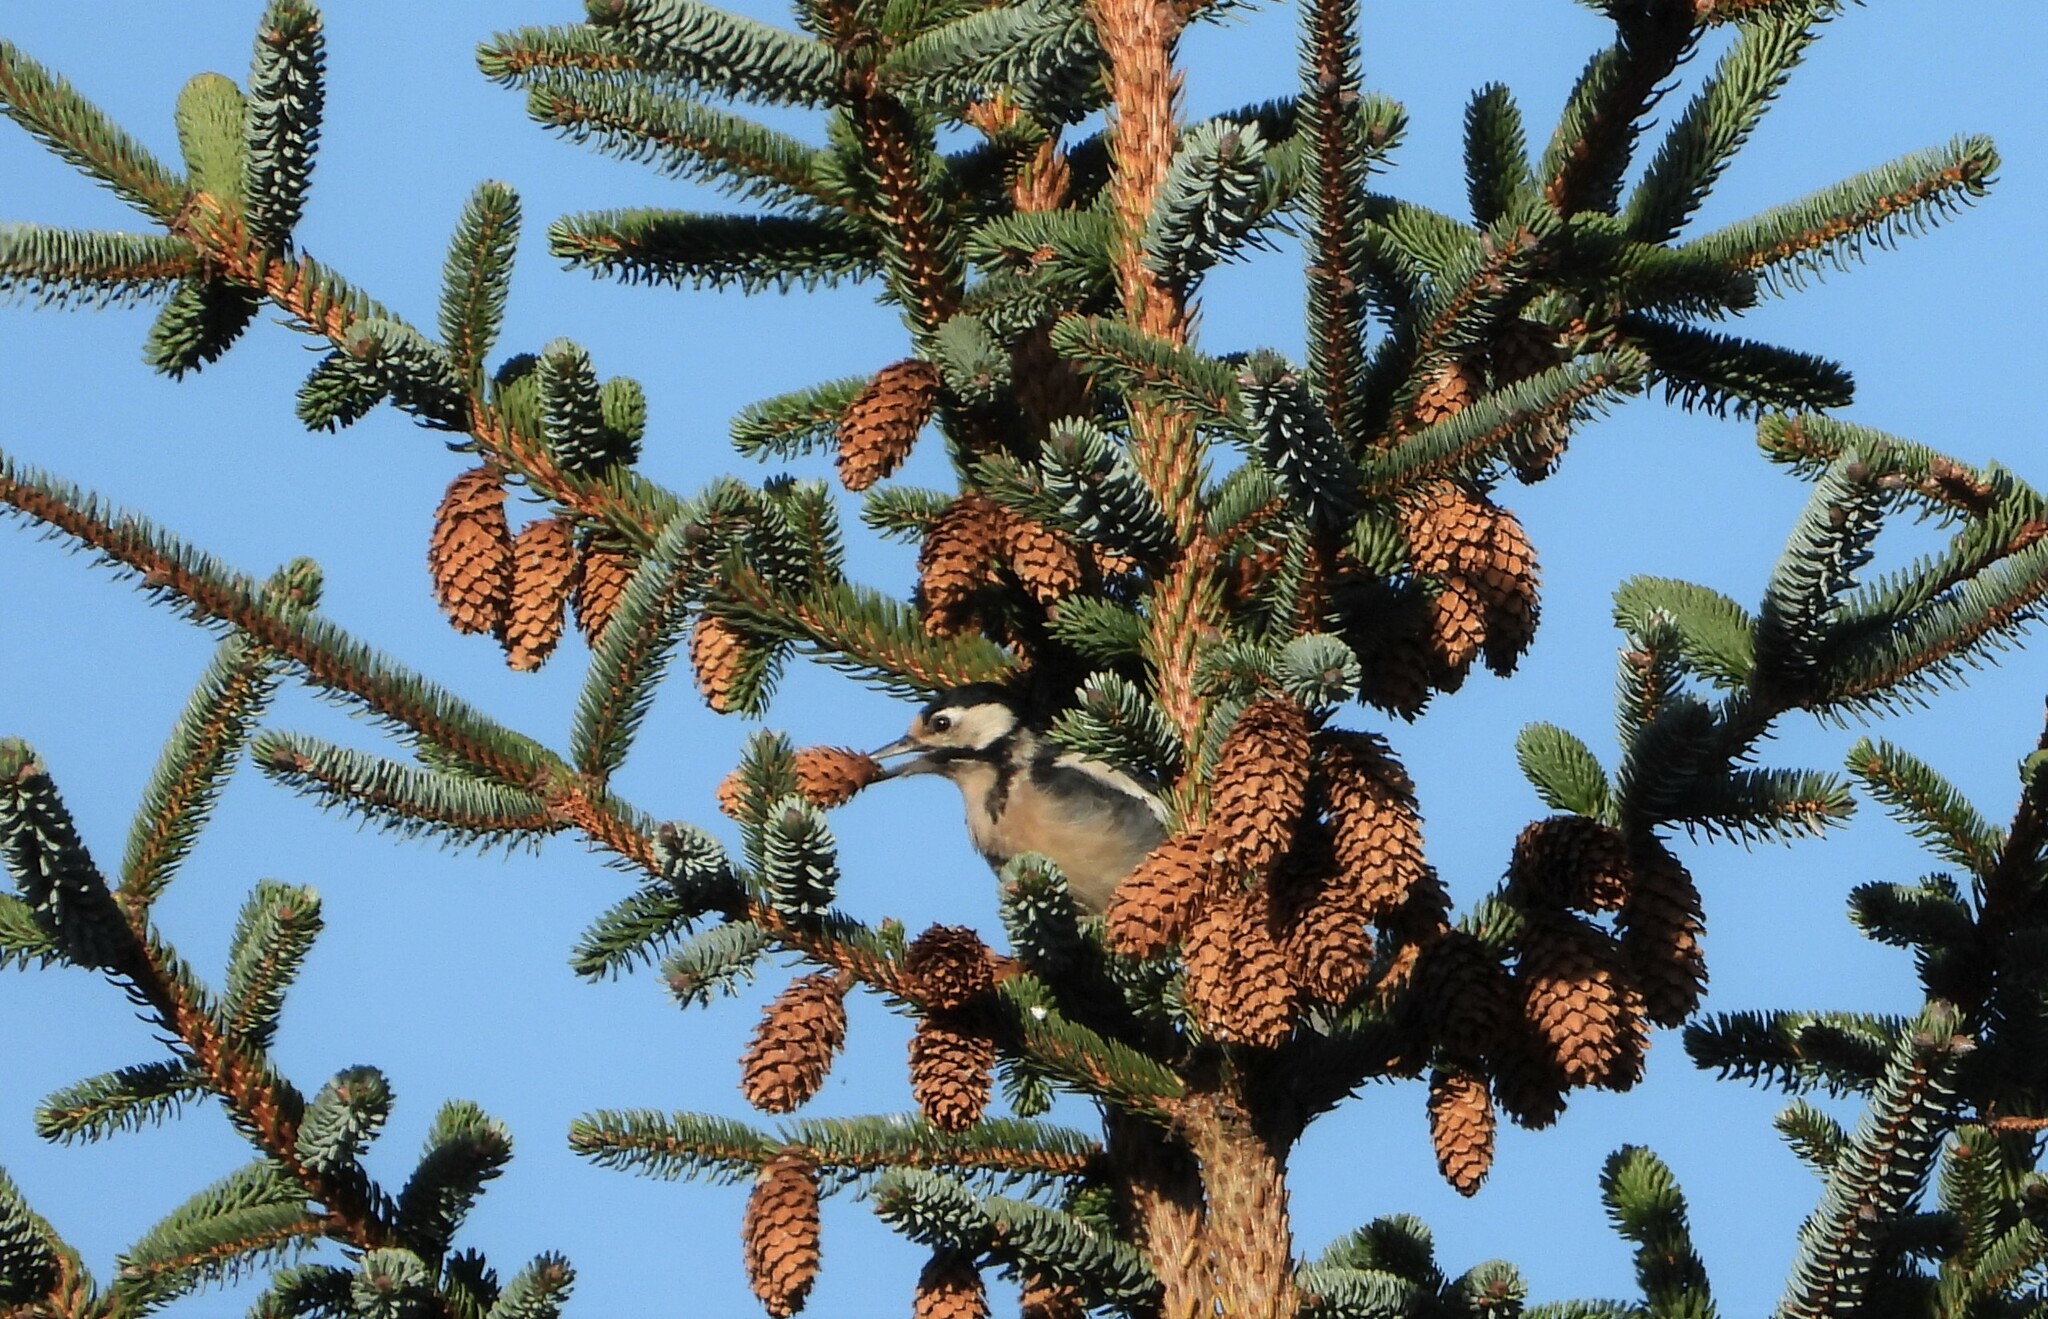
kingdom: Animalia
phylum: Chordata
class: Aves
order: Piciformes
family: Picidae
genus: Dendrocopos
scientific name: Dendrocopos major
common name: Great spotted woodpecker
